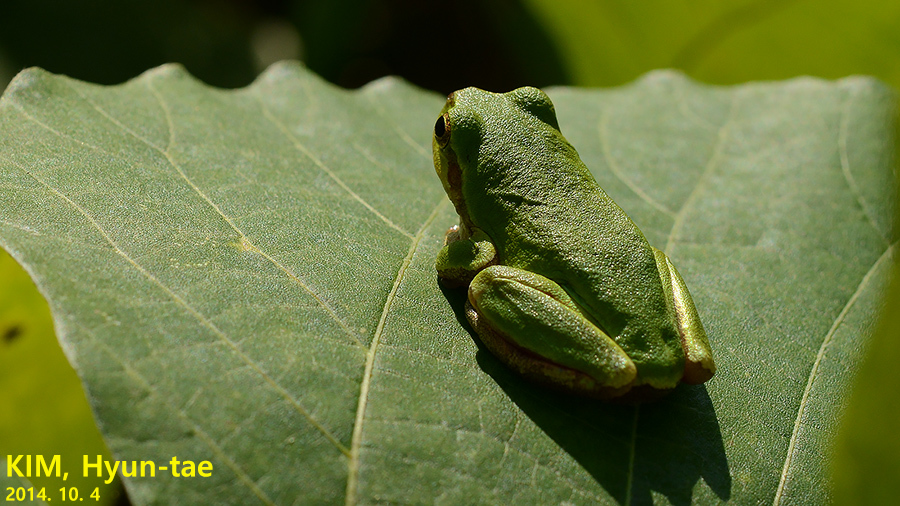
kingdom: Animalia
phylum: Chordata
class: Amphibia
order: Anura
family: Hylidae
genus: Dryophytes
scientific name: Dryophytes japonicus
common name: Japanese treefrog
